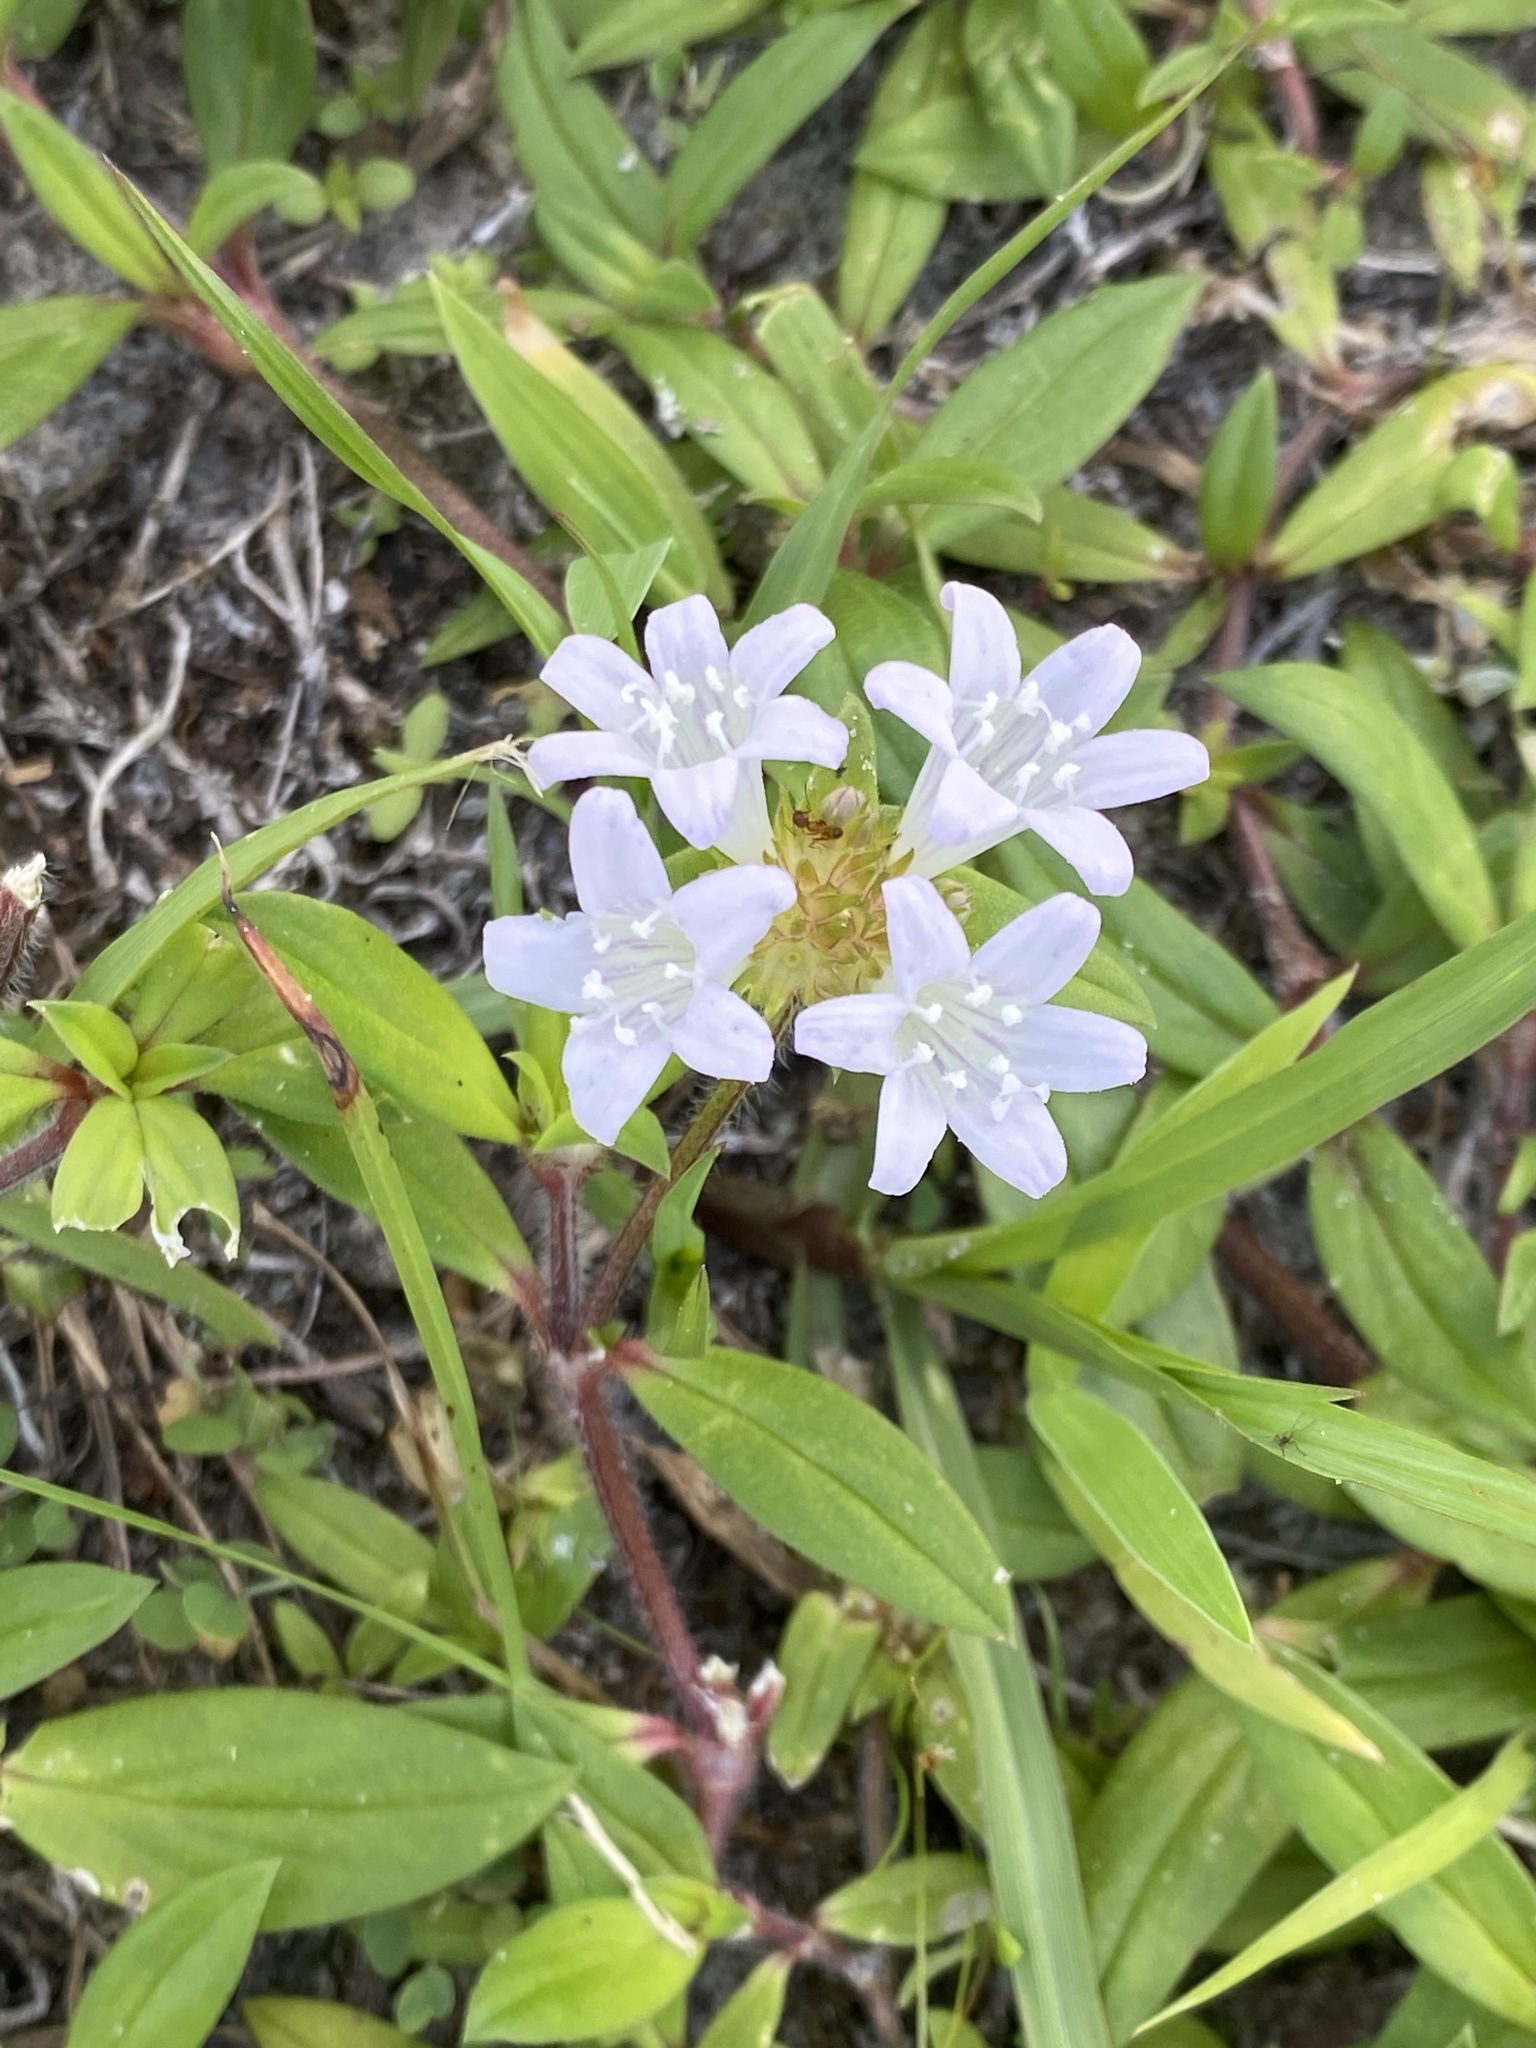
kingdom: Plantae
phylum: Tracheophyta
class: Magnoliopsida
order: Gentianales
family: Rubiaceae
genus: Richardia
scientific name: Richardia grandiflora
